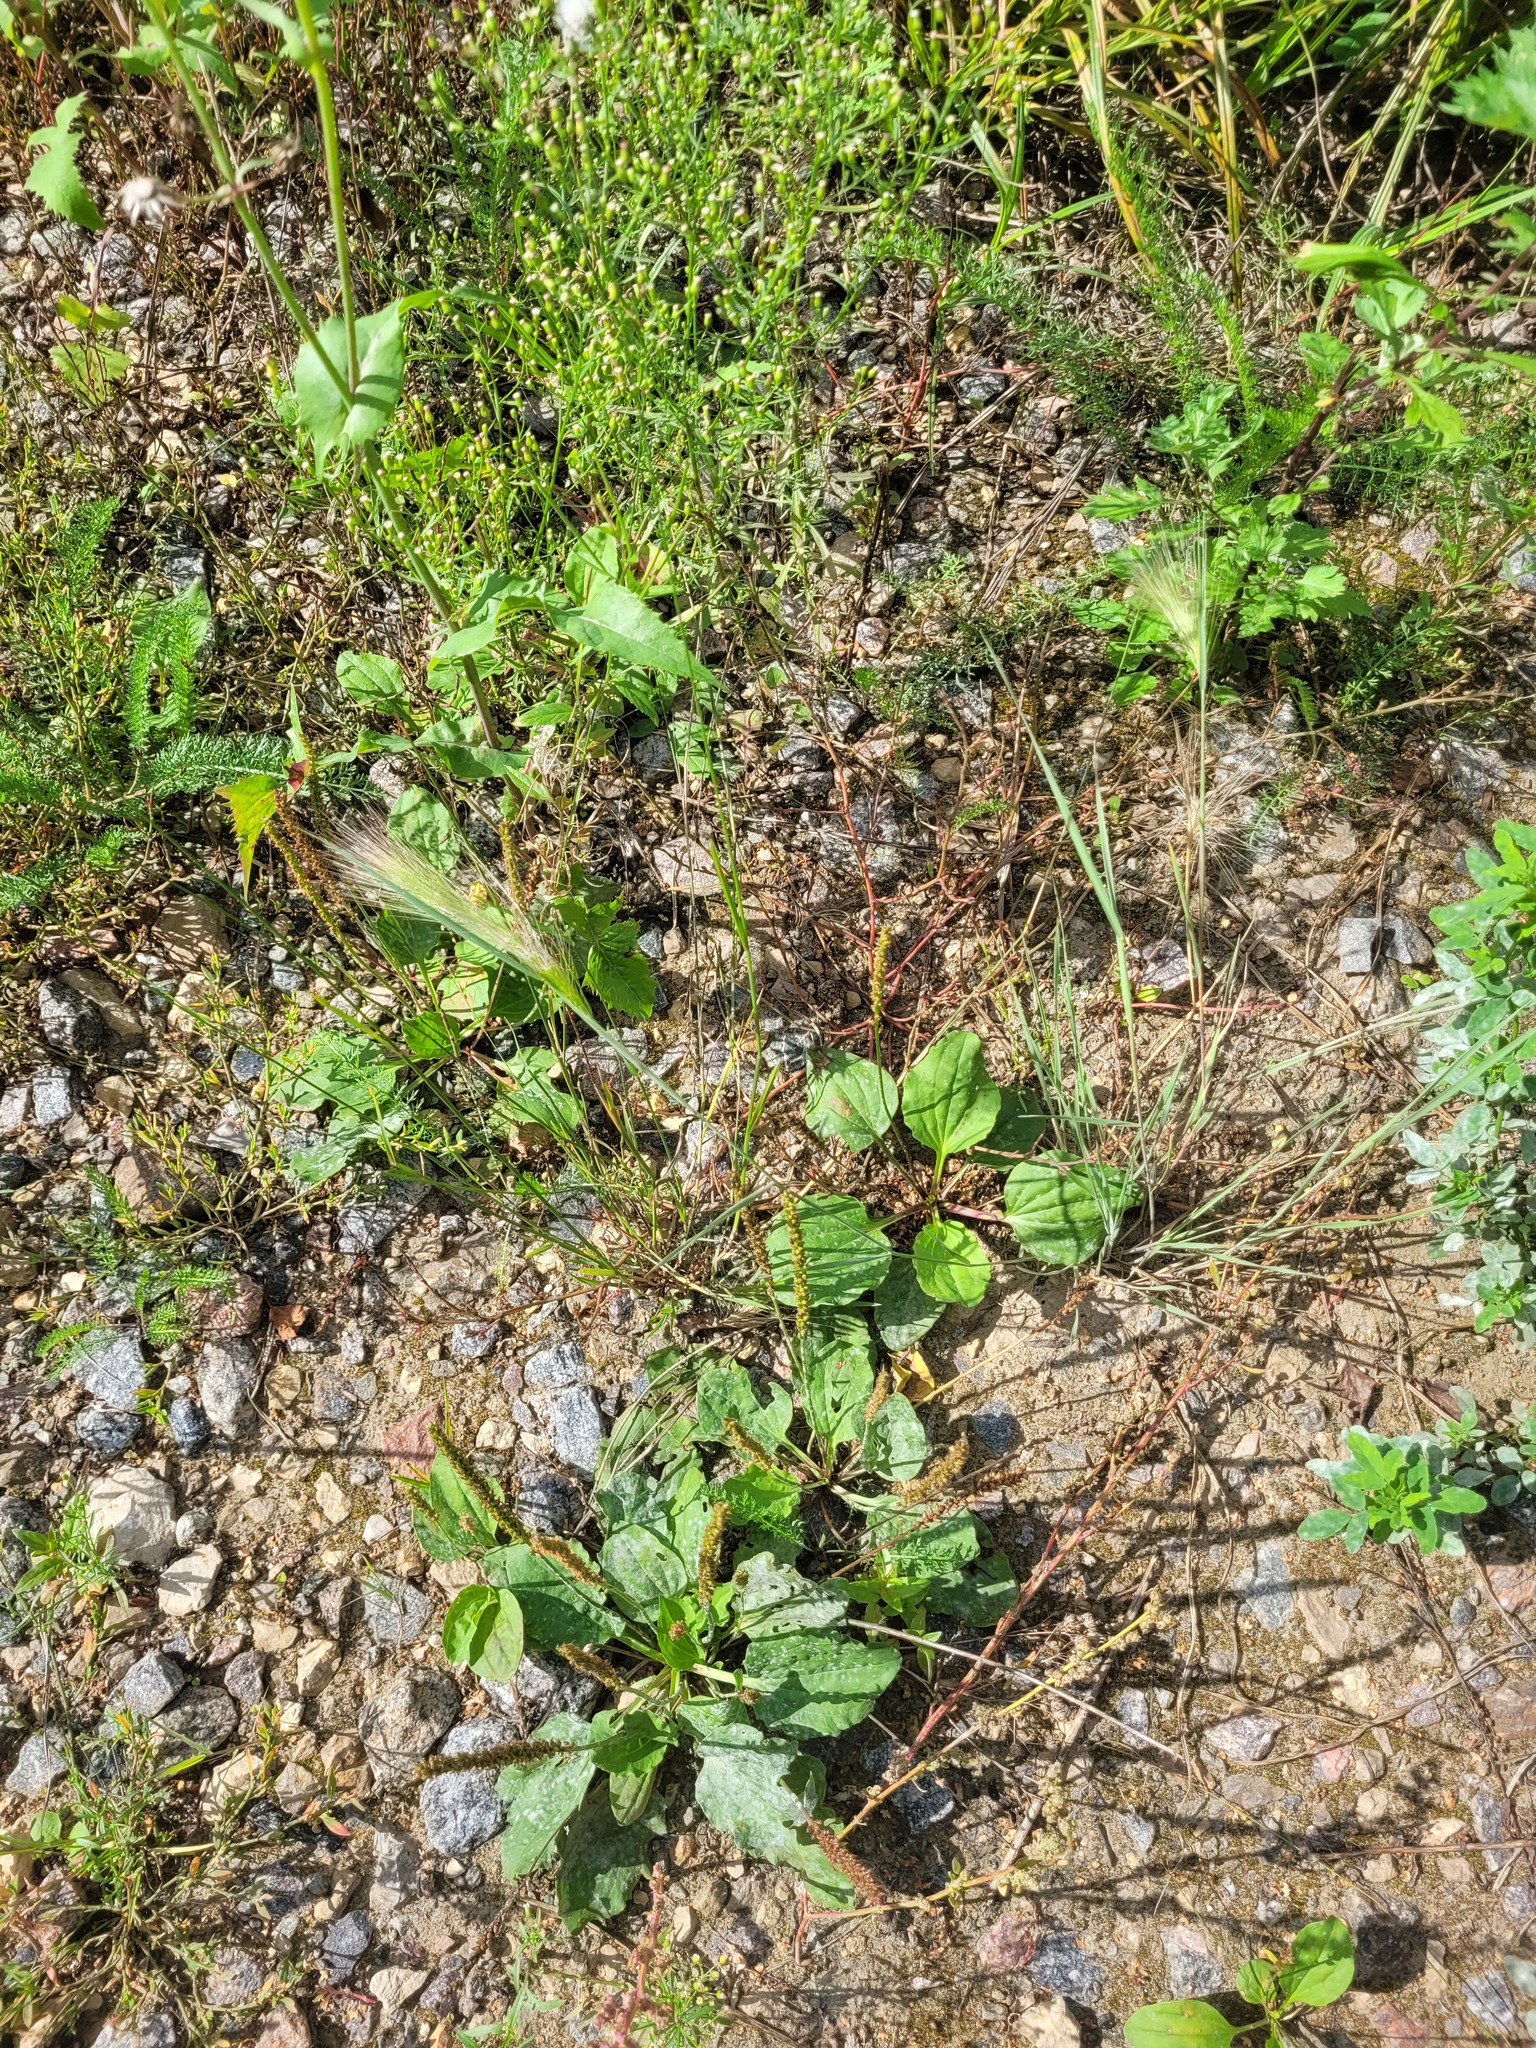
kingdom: Plantae
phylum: Tracheophyta
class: Magnoliopsida
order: Lamiales
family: Plantaginaceae
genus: Plantago
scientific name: Plantago major
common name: Common plantain
